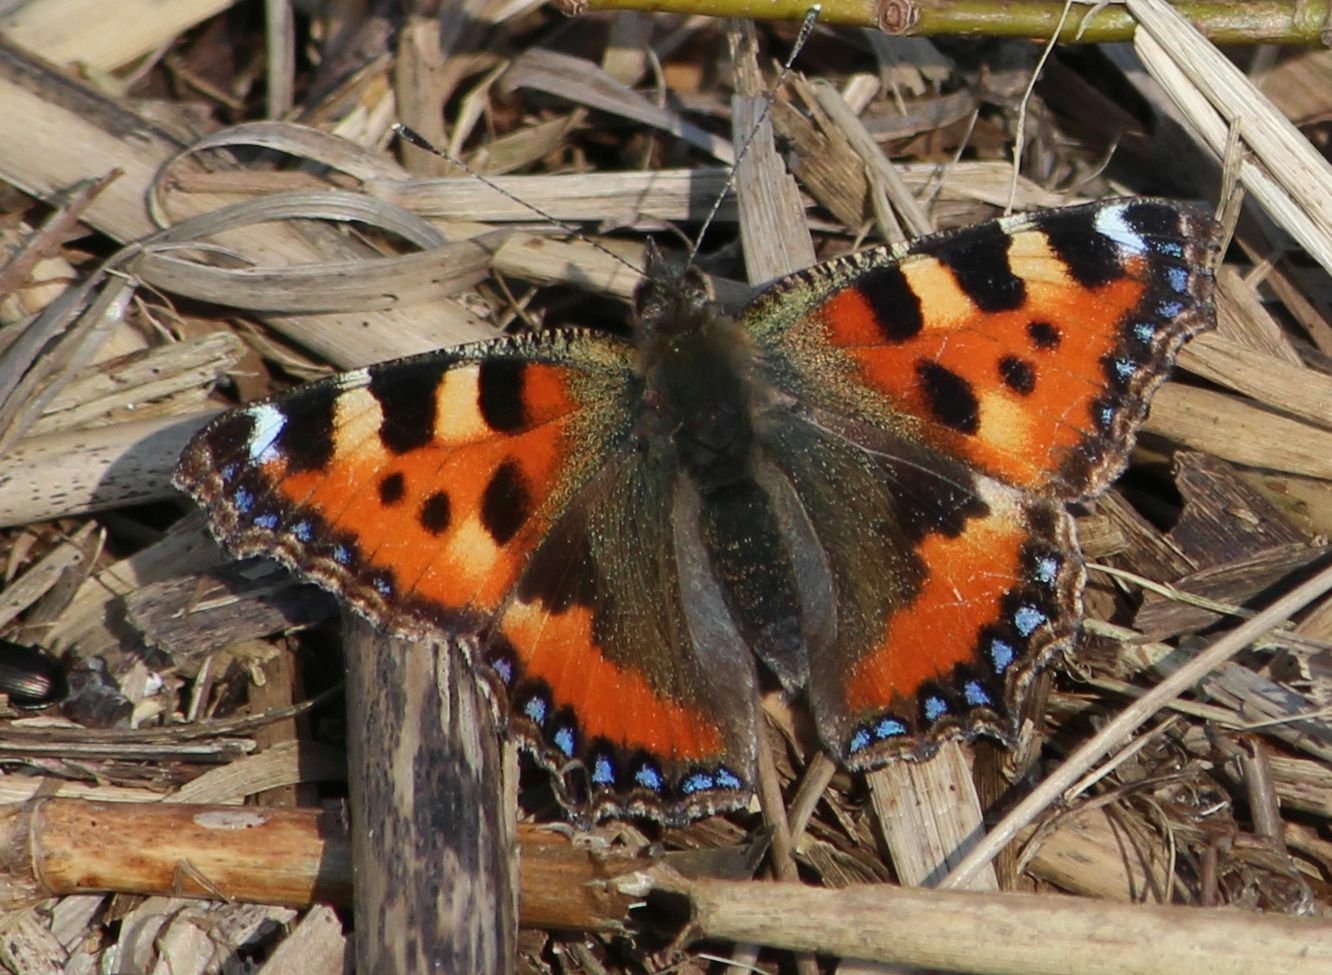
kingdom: Animalia
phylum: Arthropoda
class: Insecta
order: Lepidoptera
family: Nymphalidae
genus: Aglais
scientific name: Aglais urticae
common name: Small tortoiseshell
